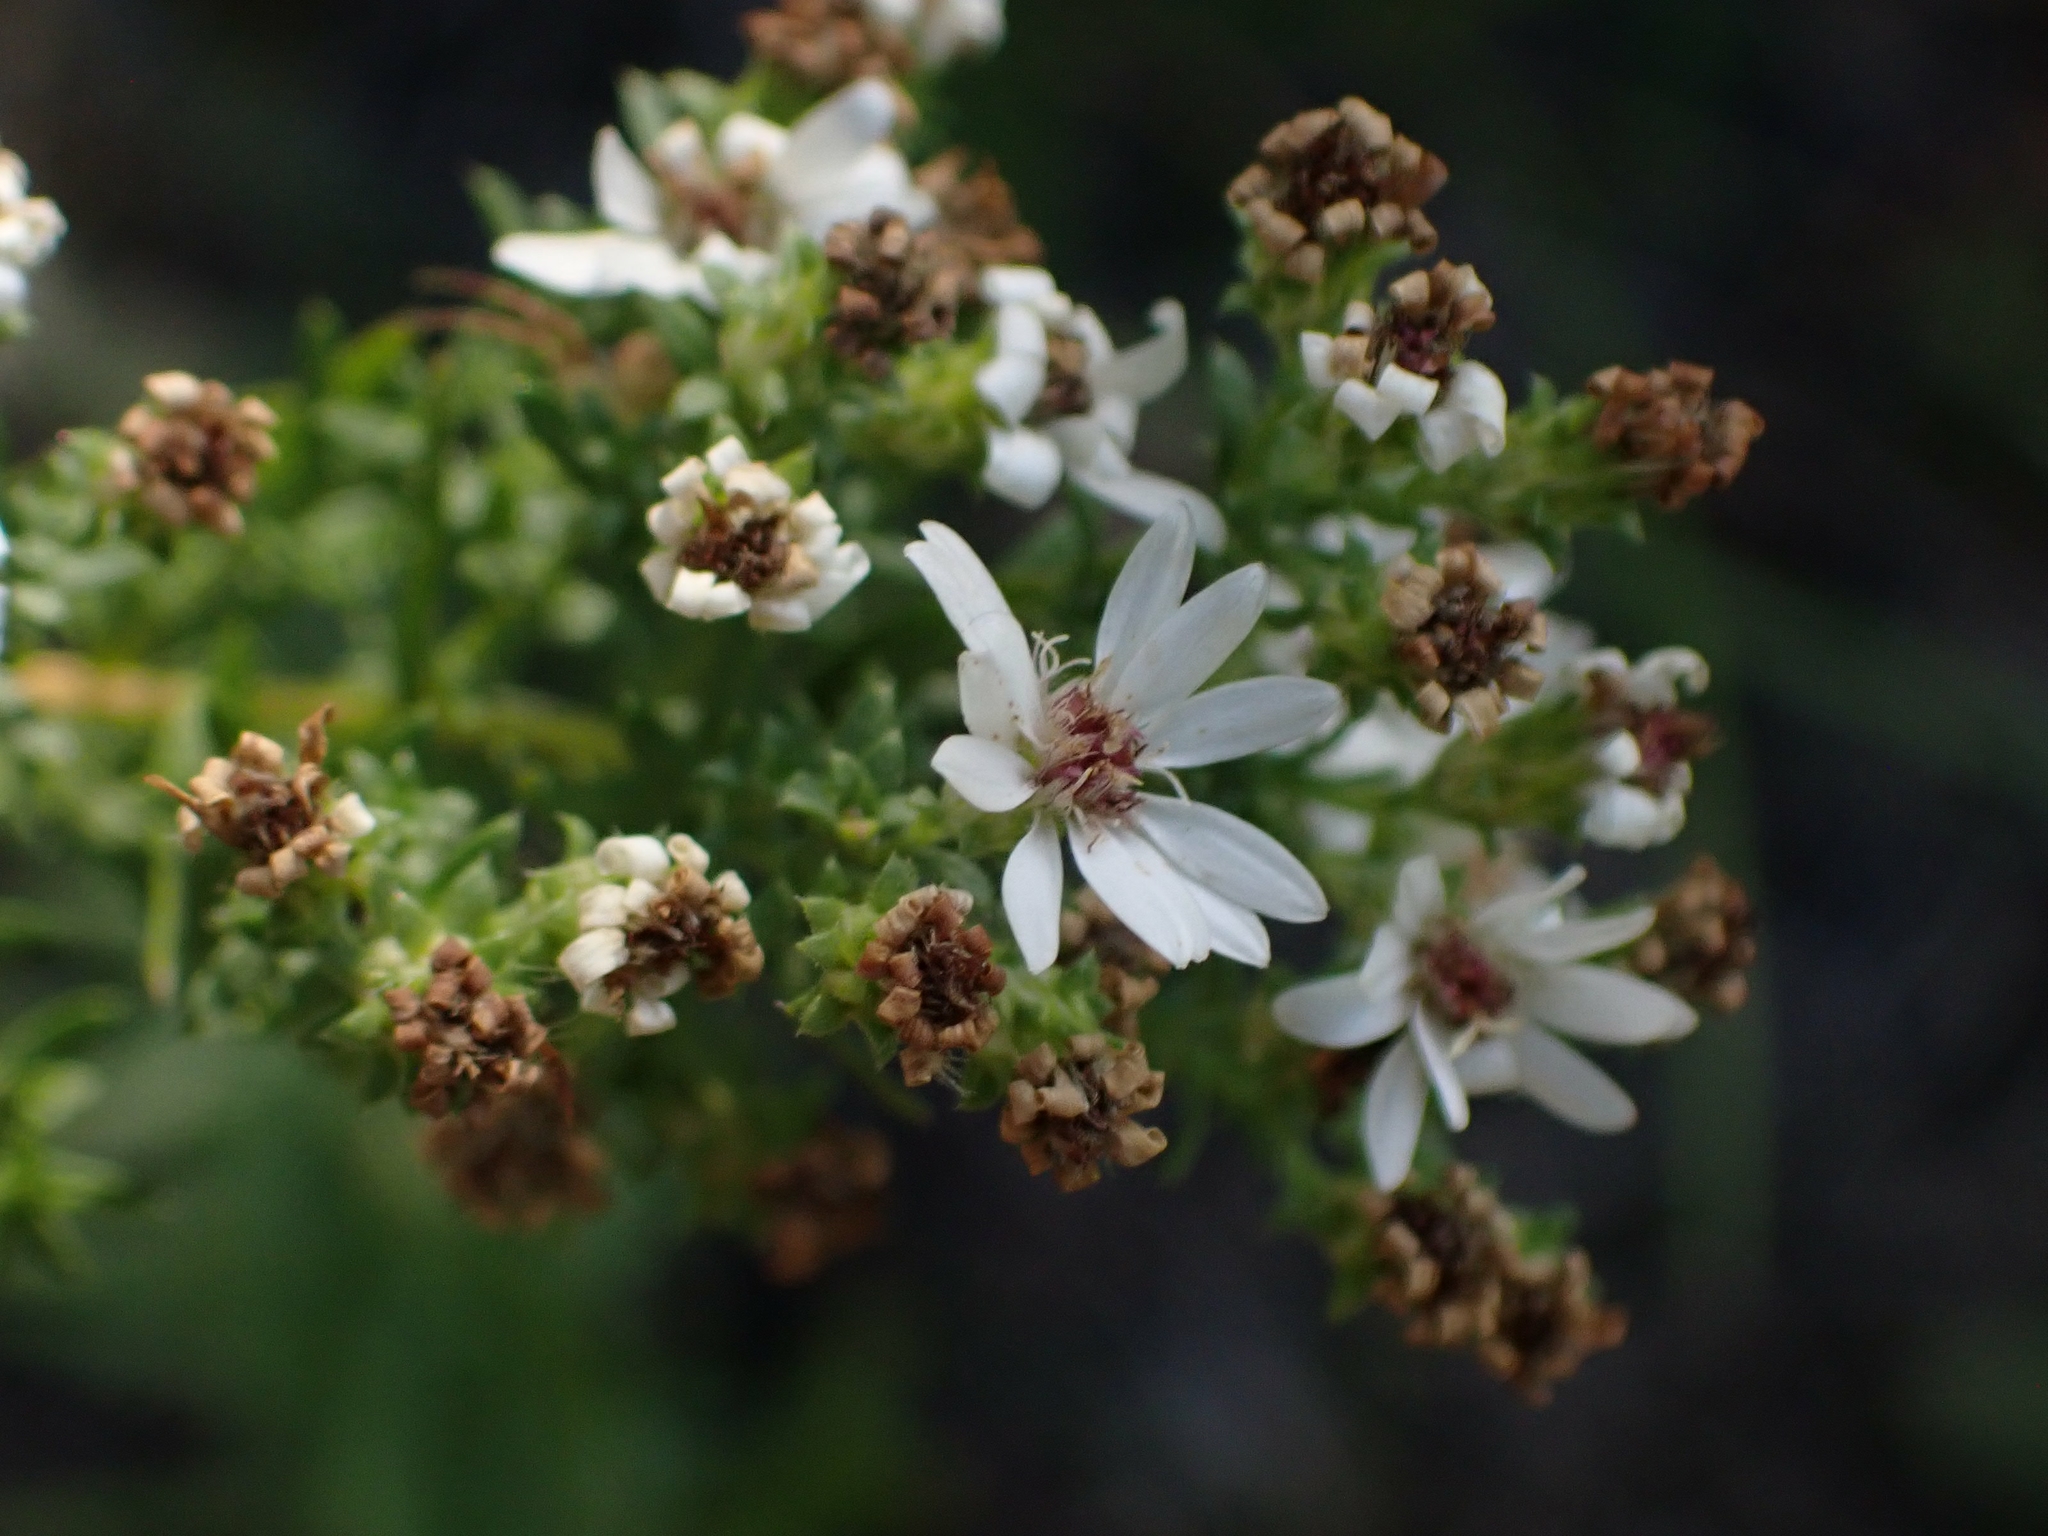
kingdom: Plantae
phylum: Tracheophyta
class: Magnoliopsida
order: Asterales
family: Asteraceae
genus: Symphyotrichum
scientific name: Symphyotrichum ericoides
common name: Heath aster
